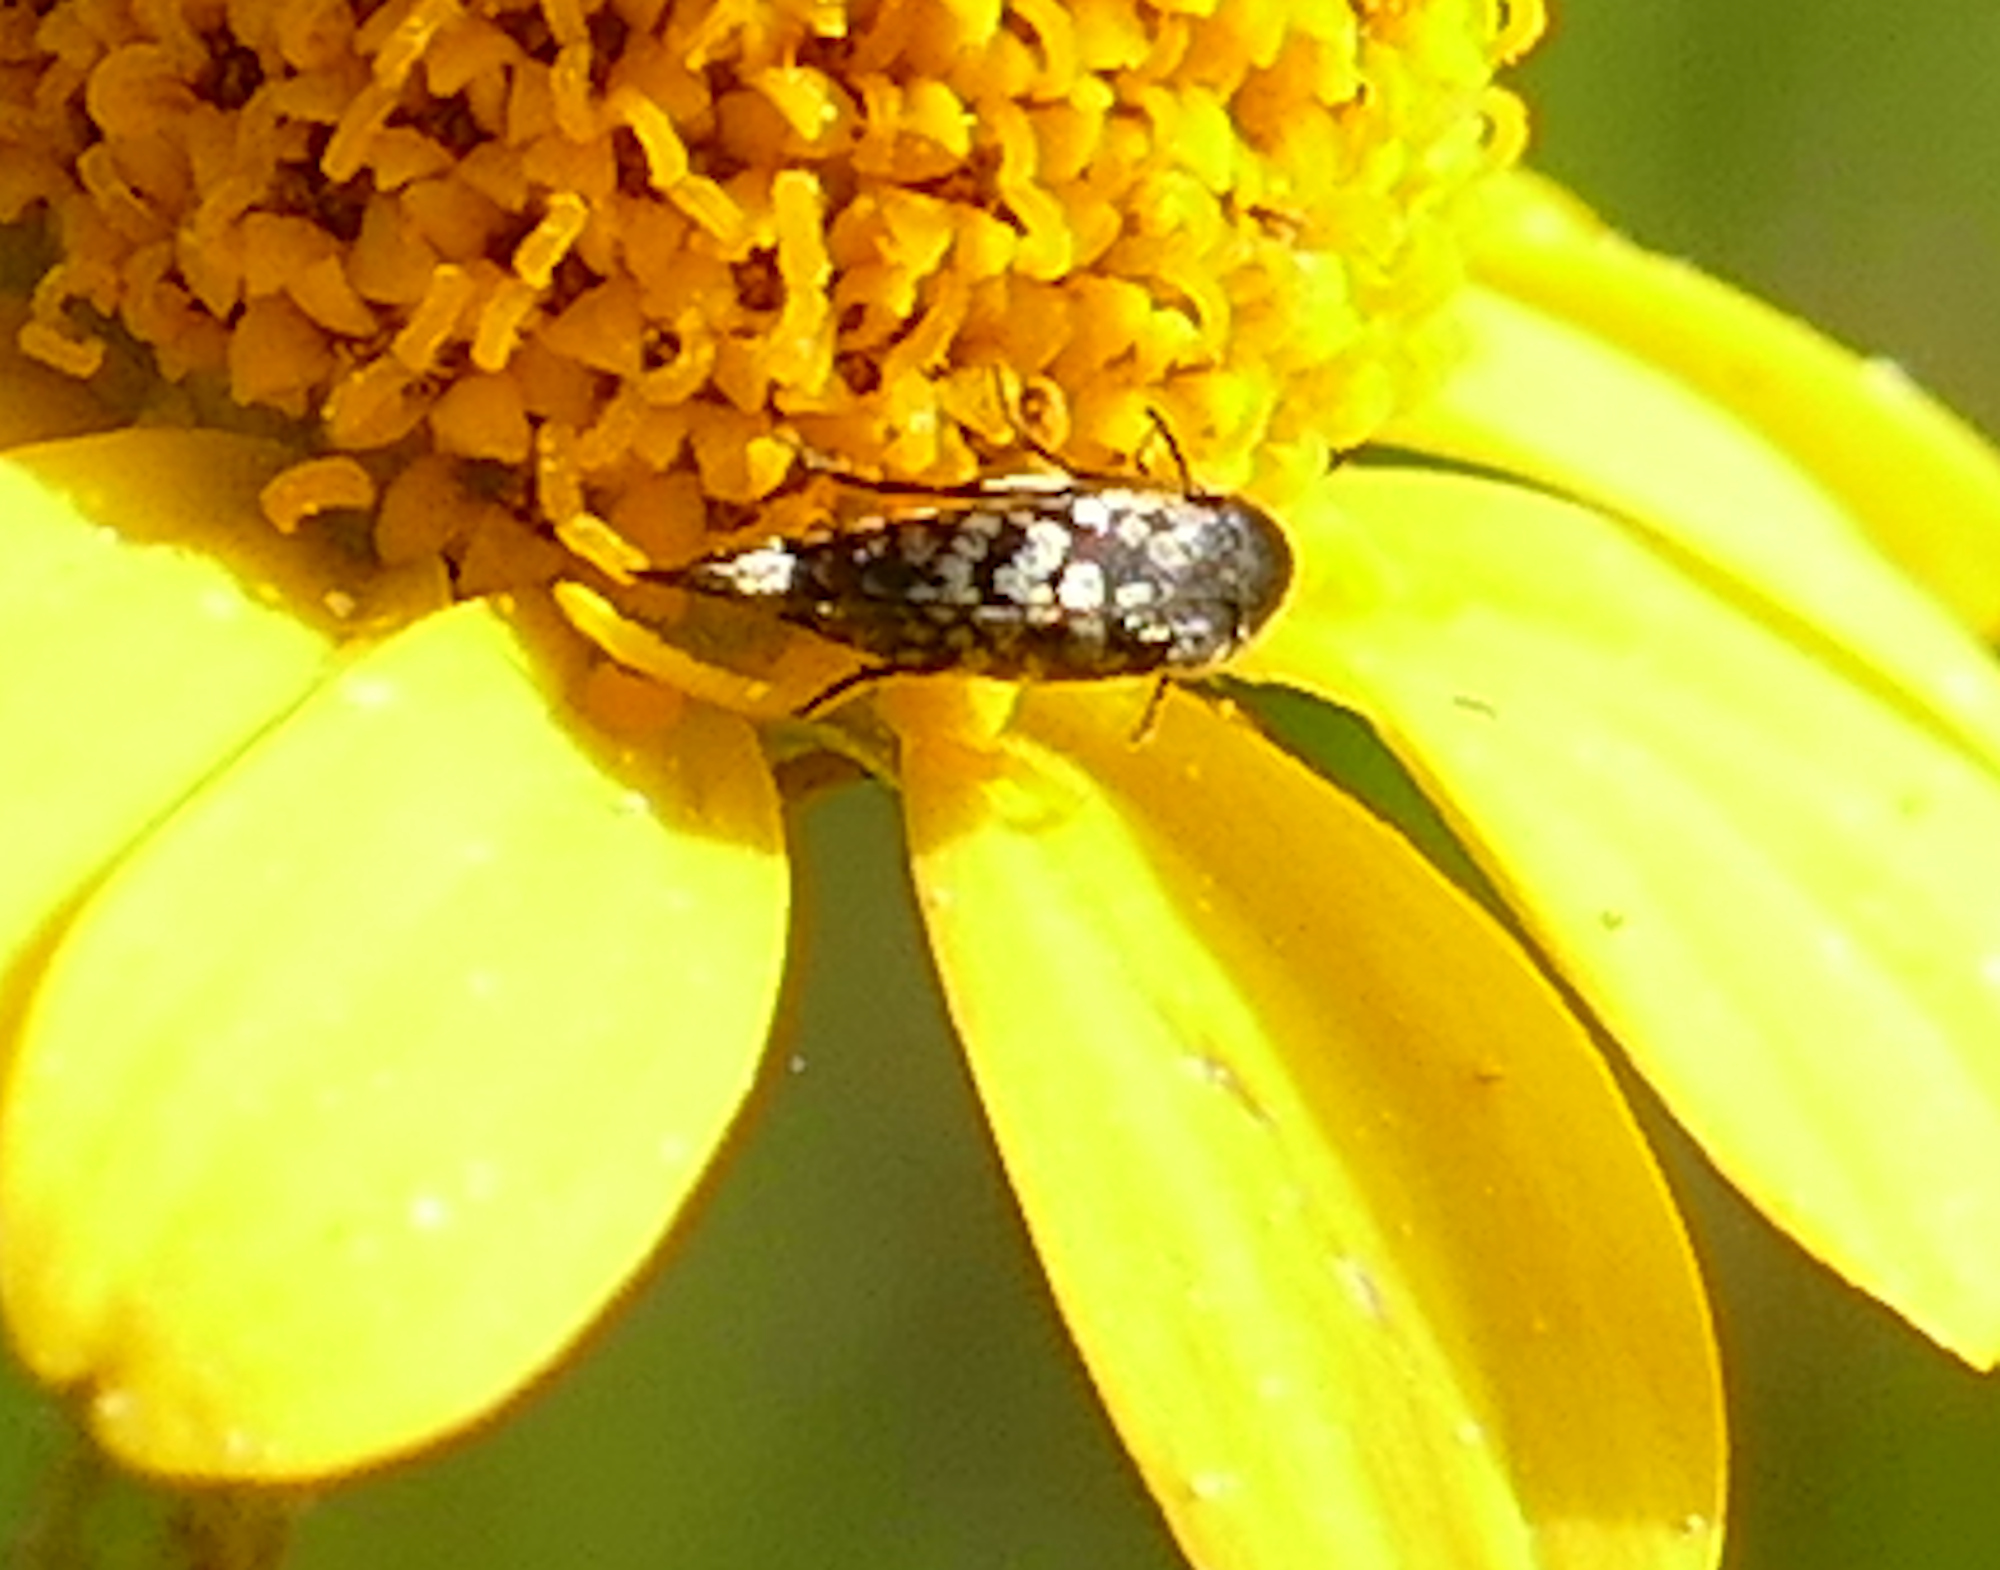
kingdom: Animalia
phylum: Arthropoda
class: Insecta
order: Coleoptera
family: Mordellidae
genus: Mordellina
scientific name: Mordellina pustulata
